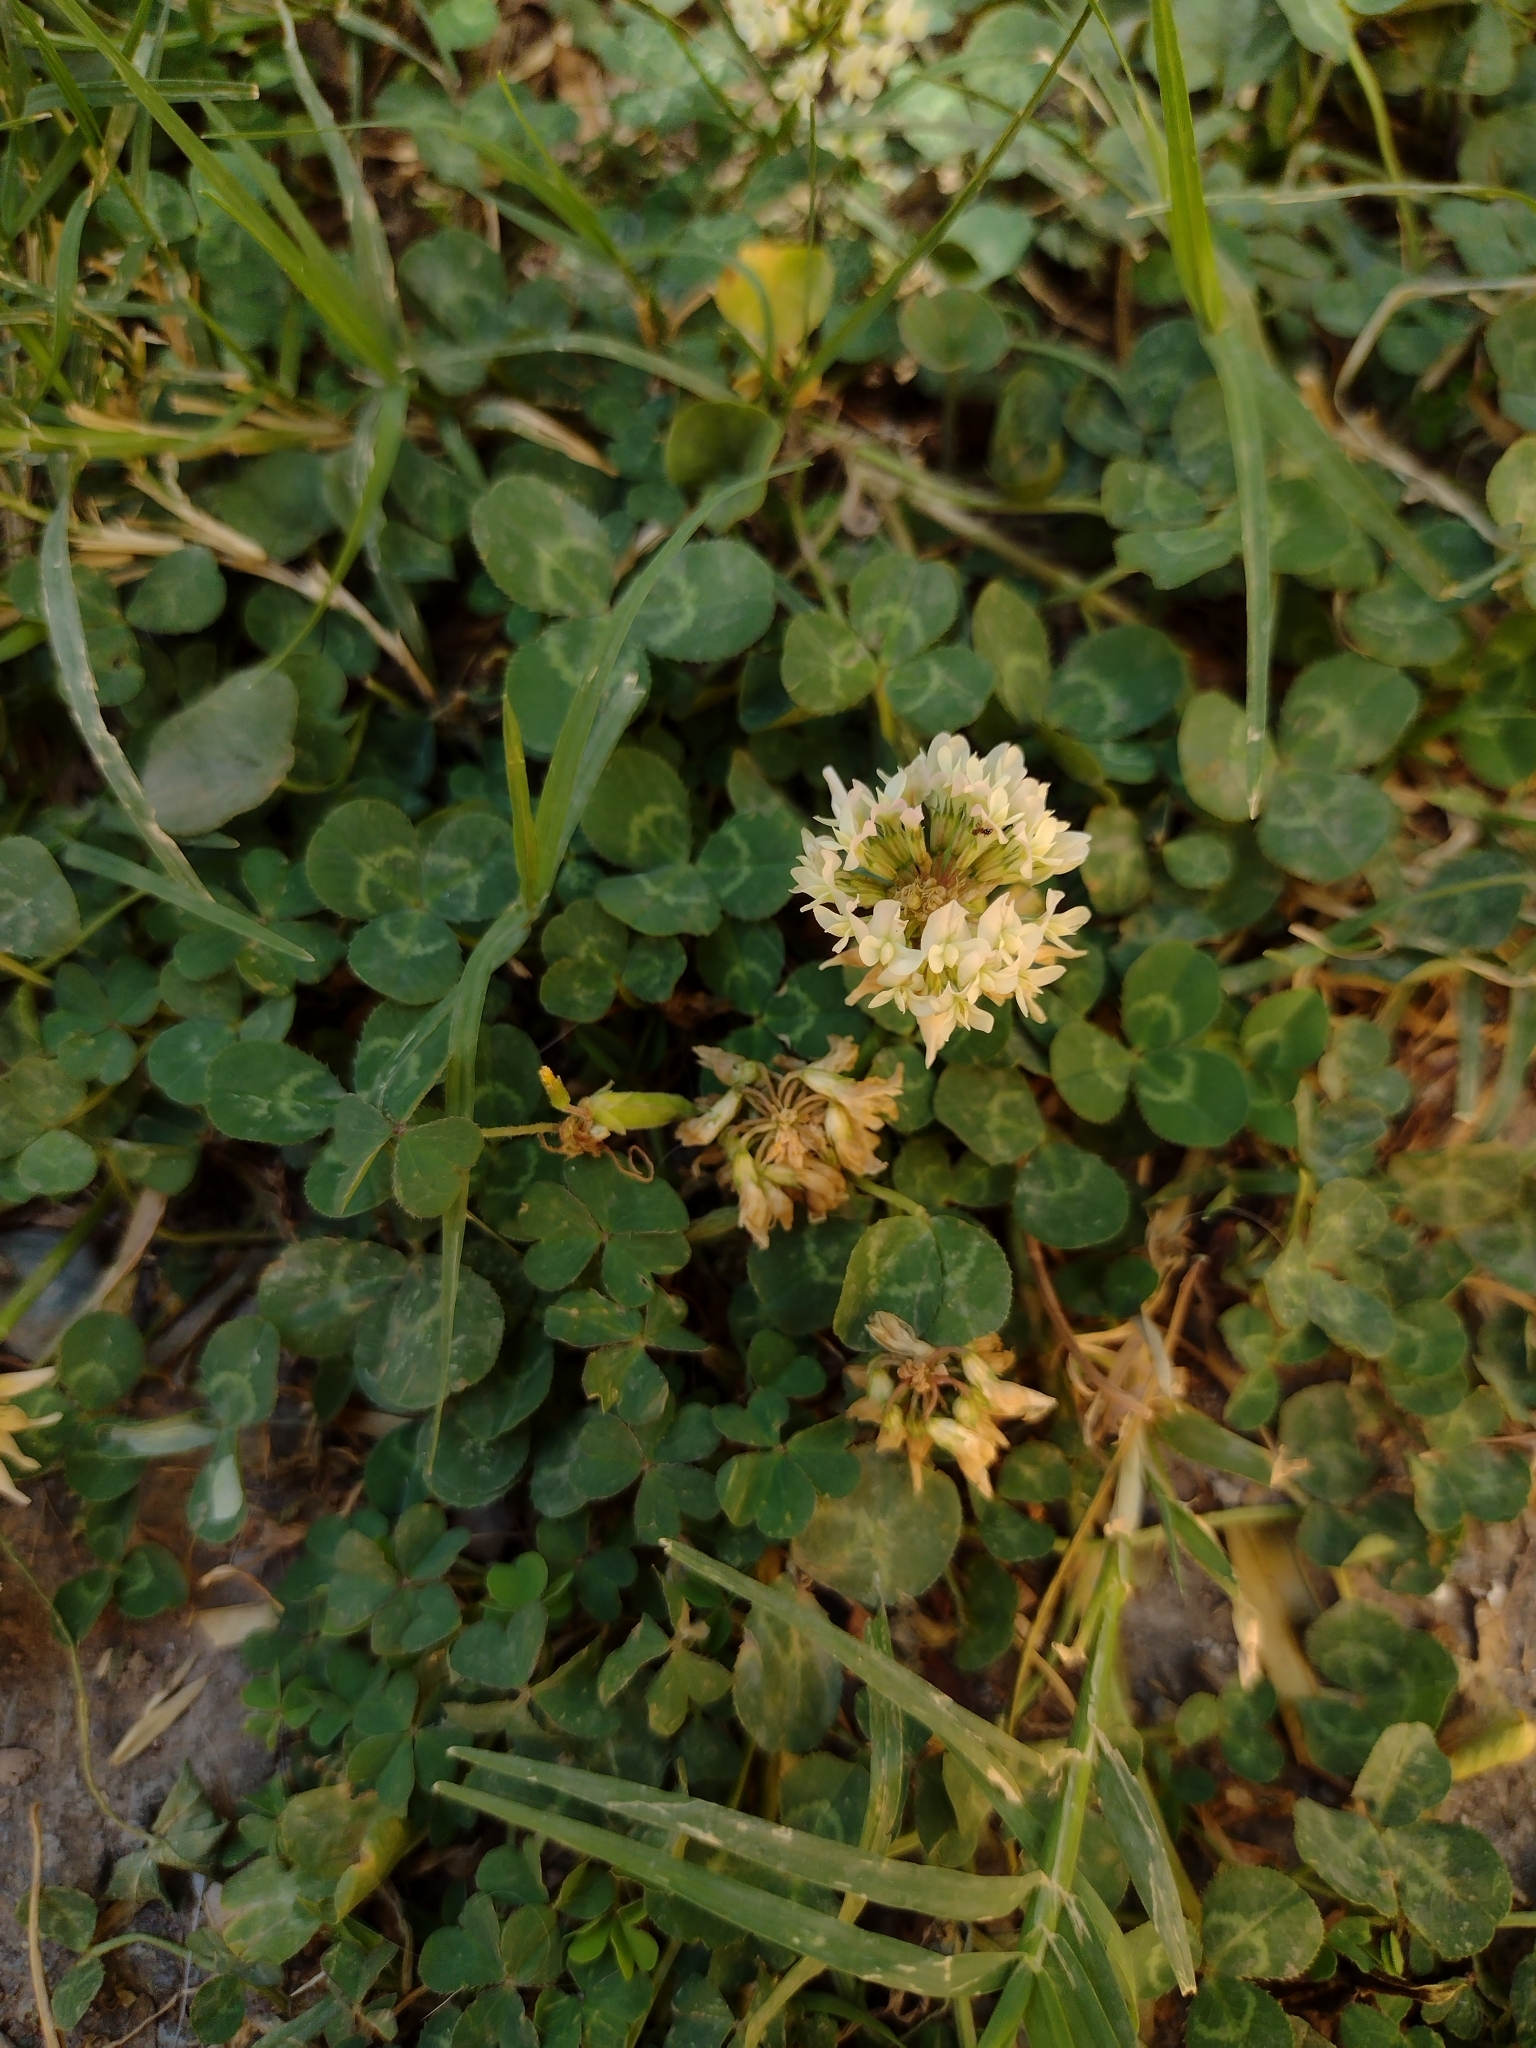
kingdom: Plantae
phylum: Tracheophyta
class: Magnoliopsida
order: Fabales
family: Fabaceae
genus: Trifolium
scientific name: Trifolium repens
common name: White clover
